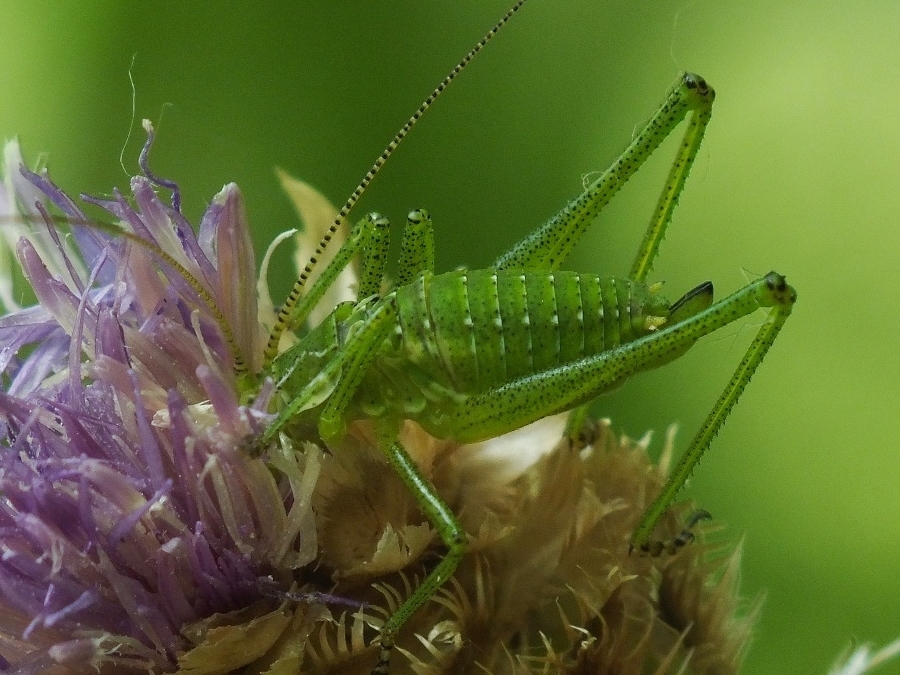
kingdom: Animalia
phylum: Arthropoda
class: Insecta
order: Orthoptera
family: Tettigoniidae
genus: Leptophyes
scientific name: Leptophyes albovittata
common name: Striped bush-cricket
